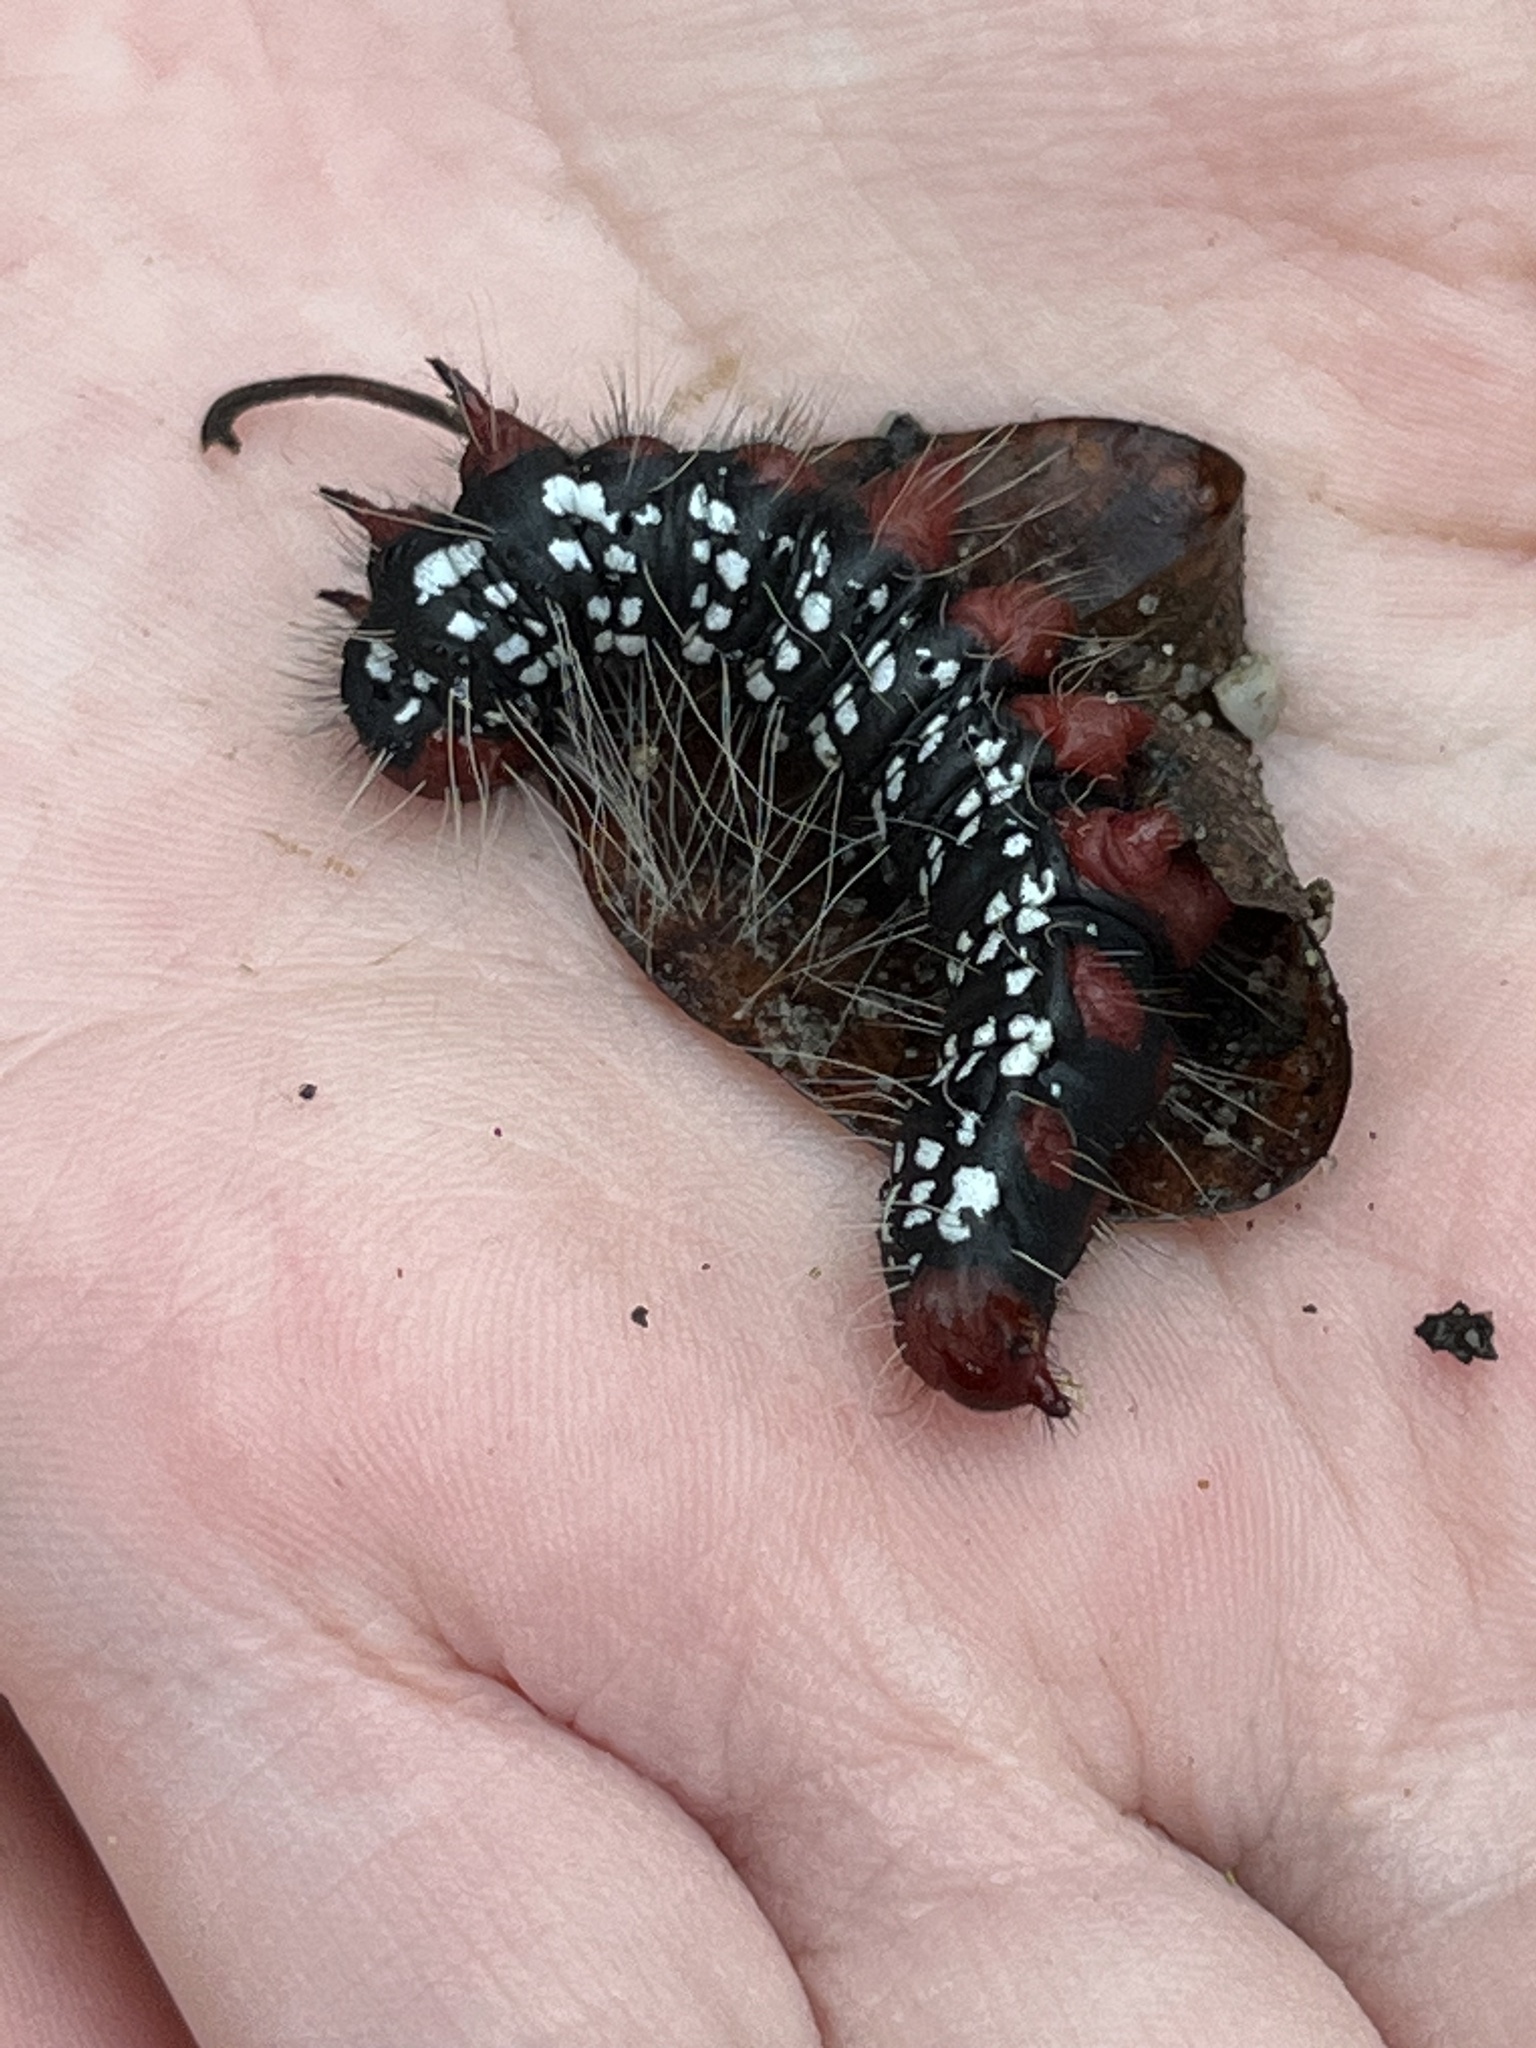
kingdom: Animalia
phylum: Arthropoda
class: Insecta
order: Lepidoptera
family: Notodontidae
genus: Datana
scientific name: Datana major
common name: Azalea caterpillar
